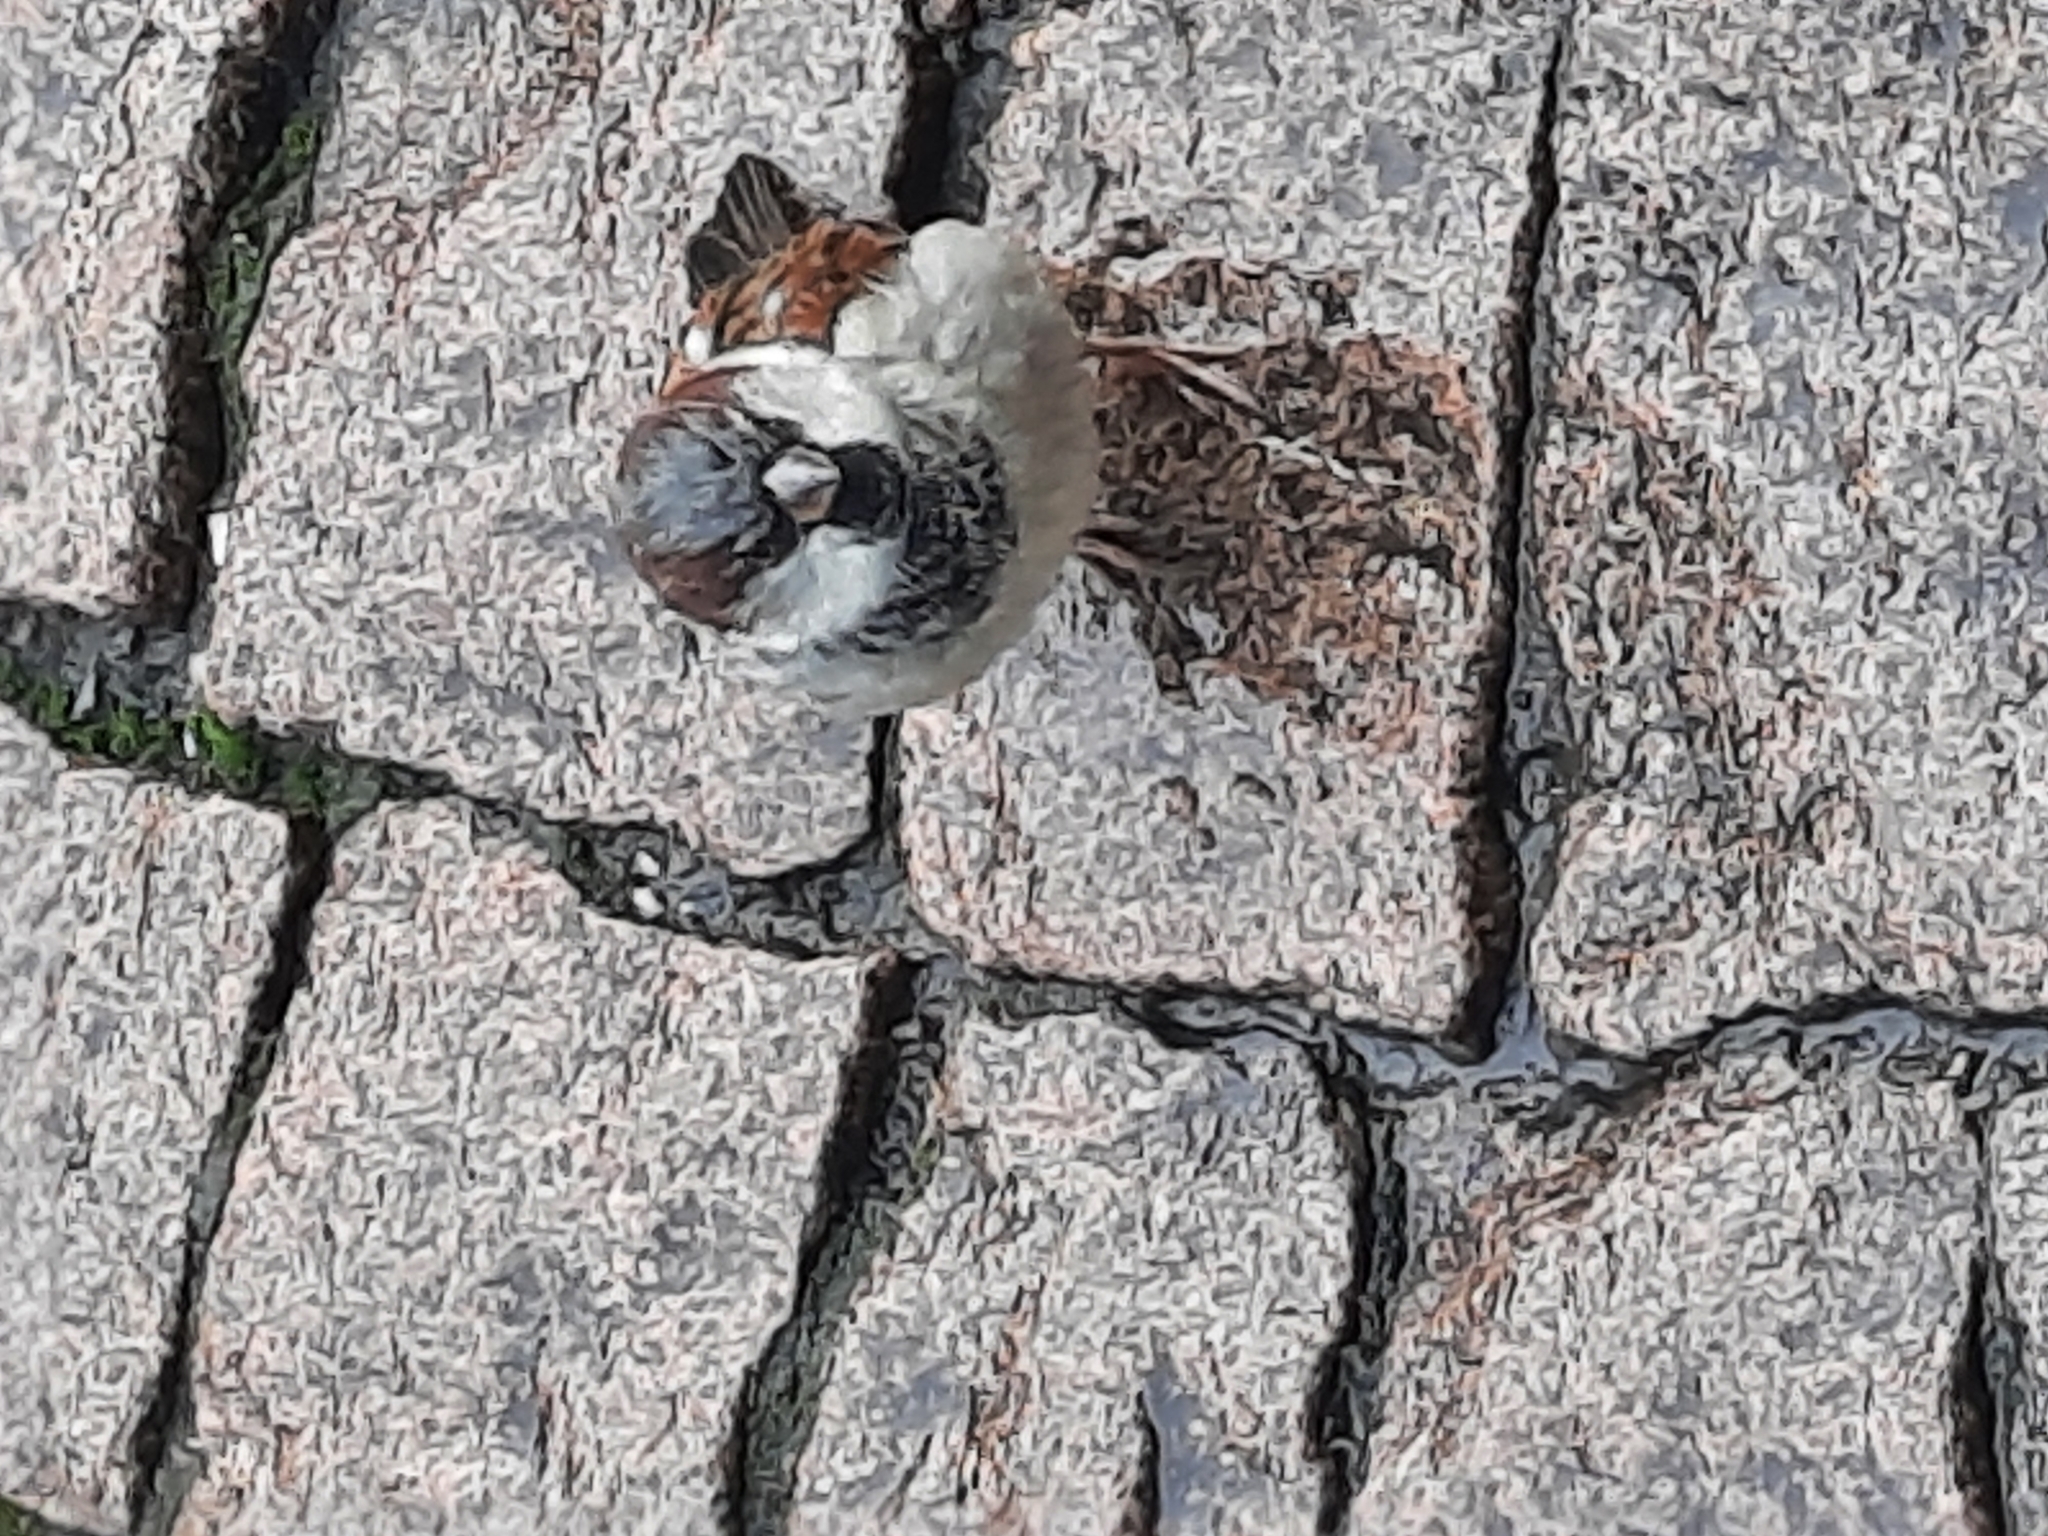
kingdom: Animalia
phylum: Chordata
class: Aves
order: Passeriformes
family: Passeridae
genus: Passer
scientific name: Passer domesticus
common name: House sparrow
